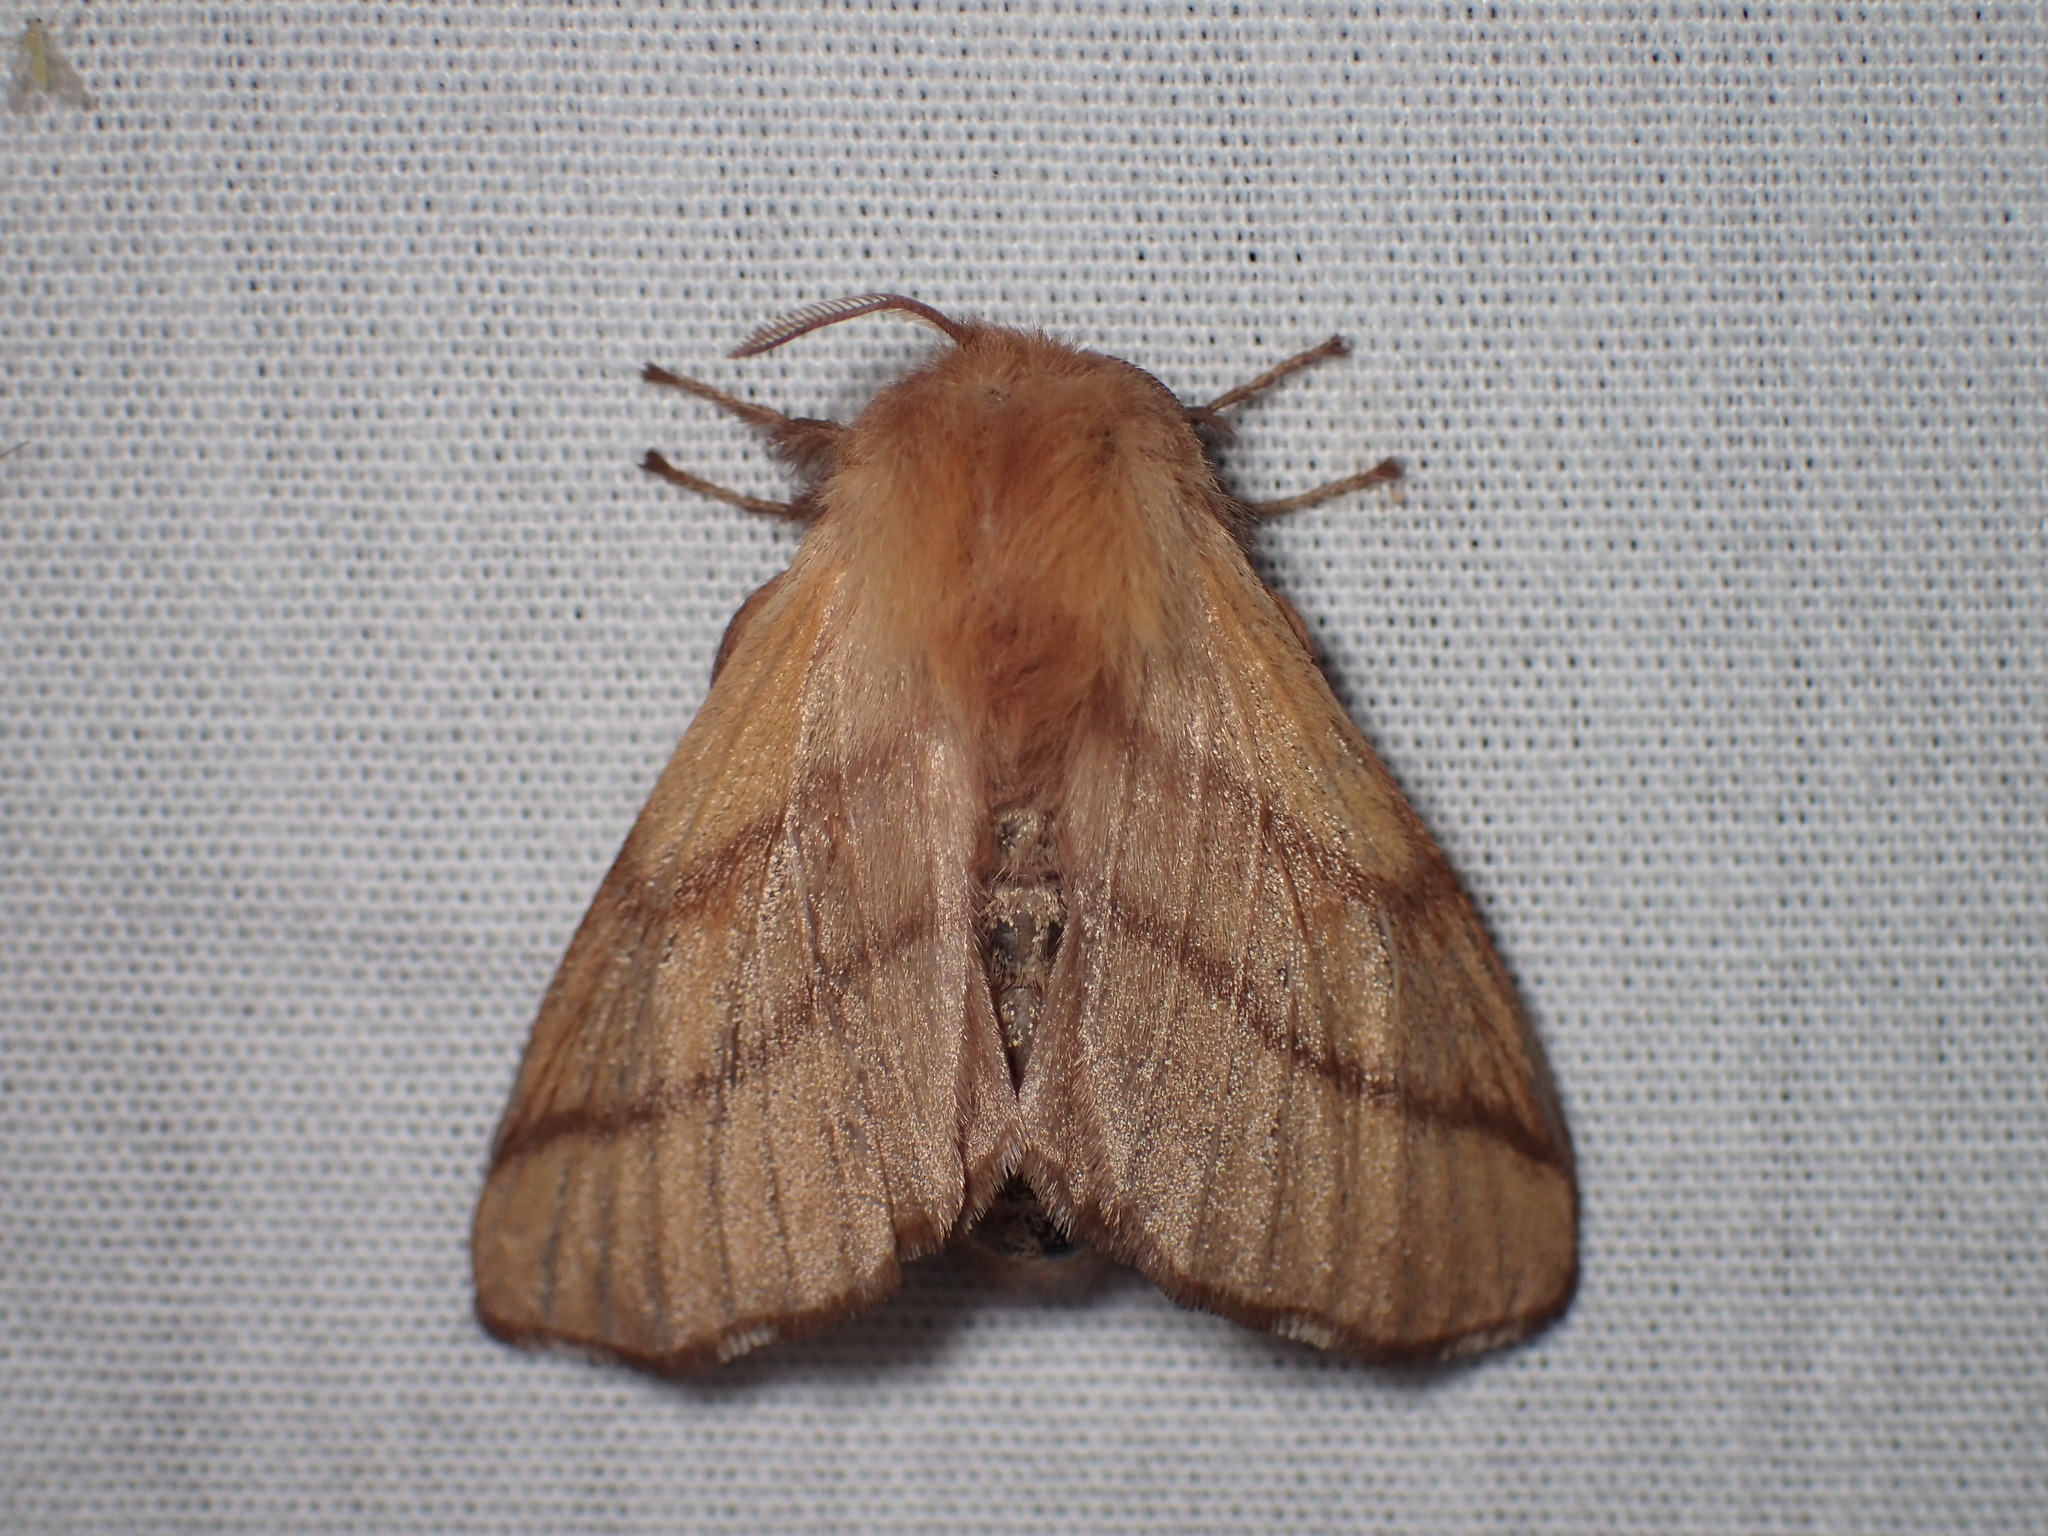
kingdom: Animalia
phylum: Arthropoda
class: Insecta
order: Lepidoptera
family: Lasiocampidae
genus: Malacosoma
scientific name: Malacosoma disstria
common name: Forest tent caterpillar
